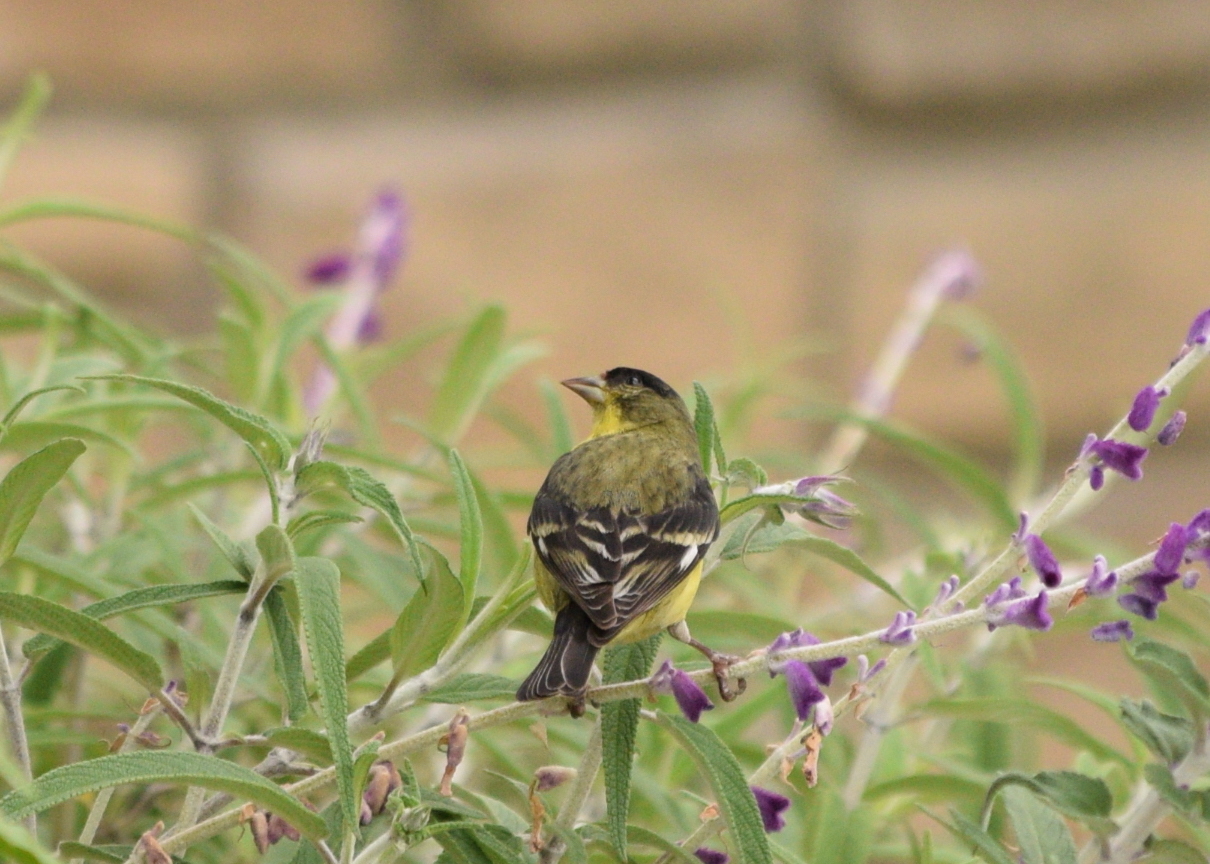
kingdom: Animalia
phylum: Chordata
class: Aves
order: Passeriformes
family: Fringillidae
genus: Spinus
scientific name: Spinus psaltria
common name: Lesser goldfinch
